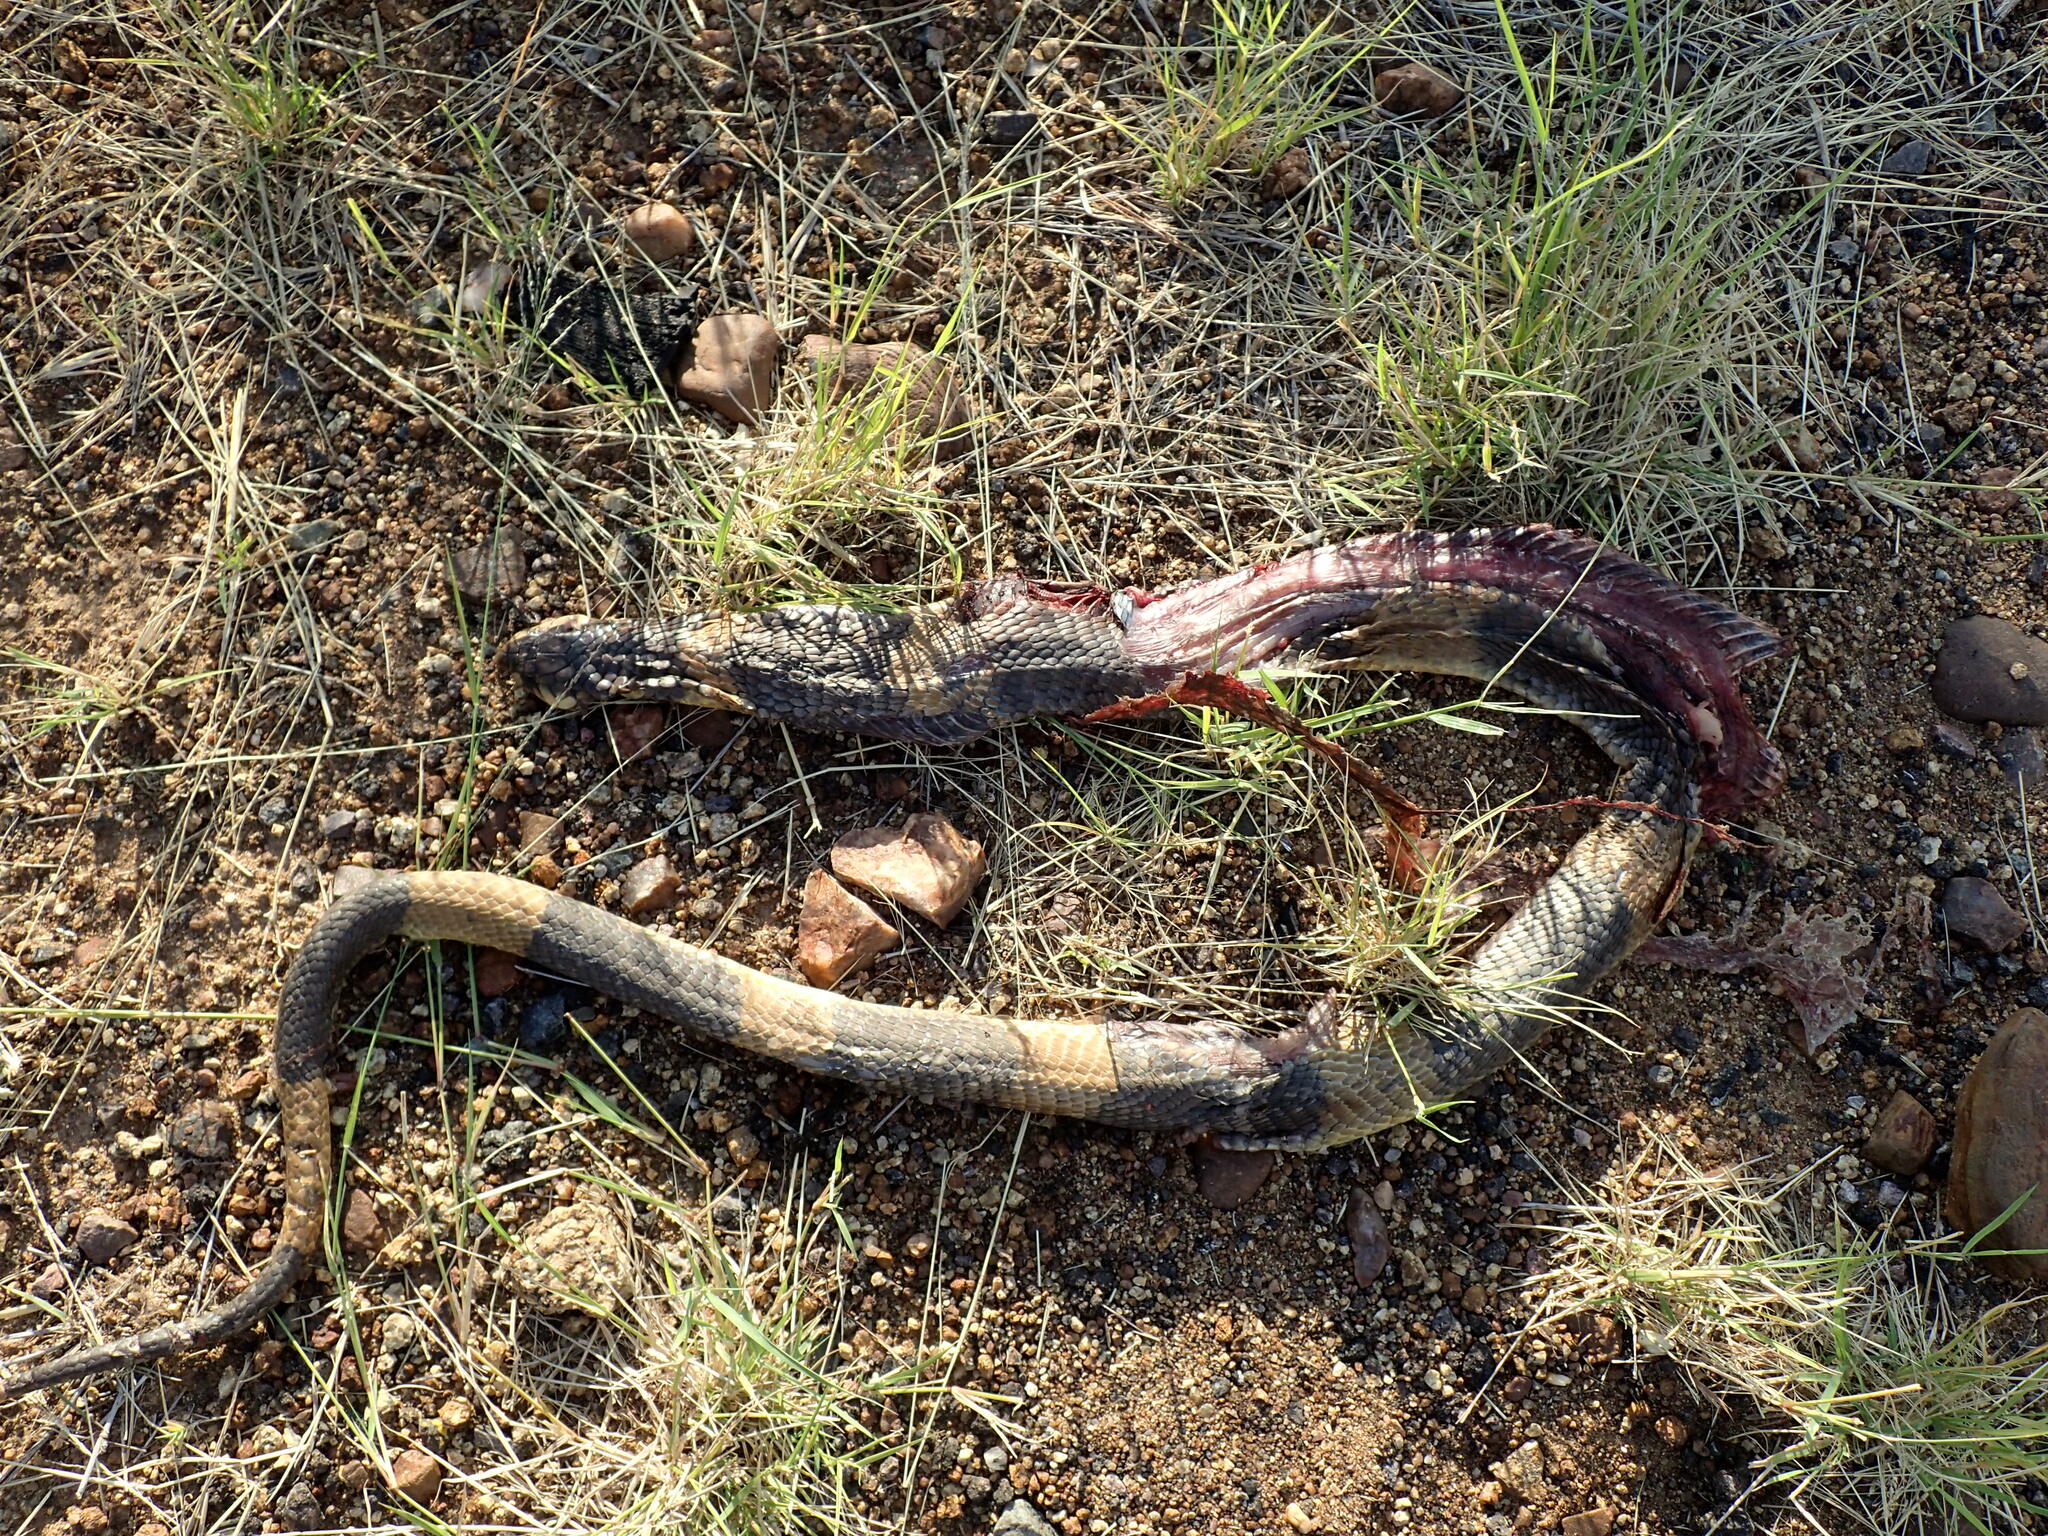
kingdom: Animalia
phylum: Chordata
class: Squamata
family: Elapidae
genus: Naja
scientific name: Naja annulifera
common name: Snouted cobra
